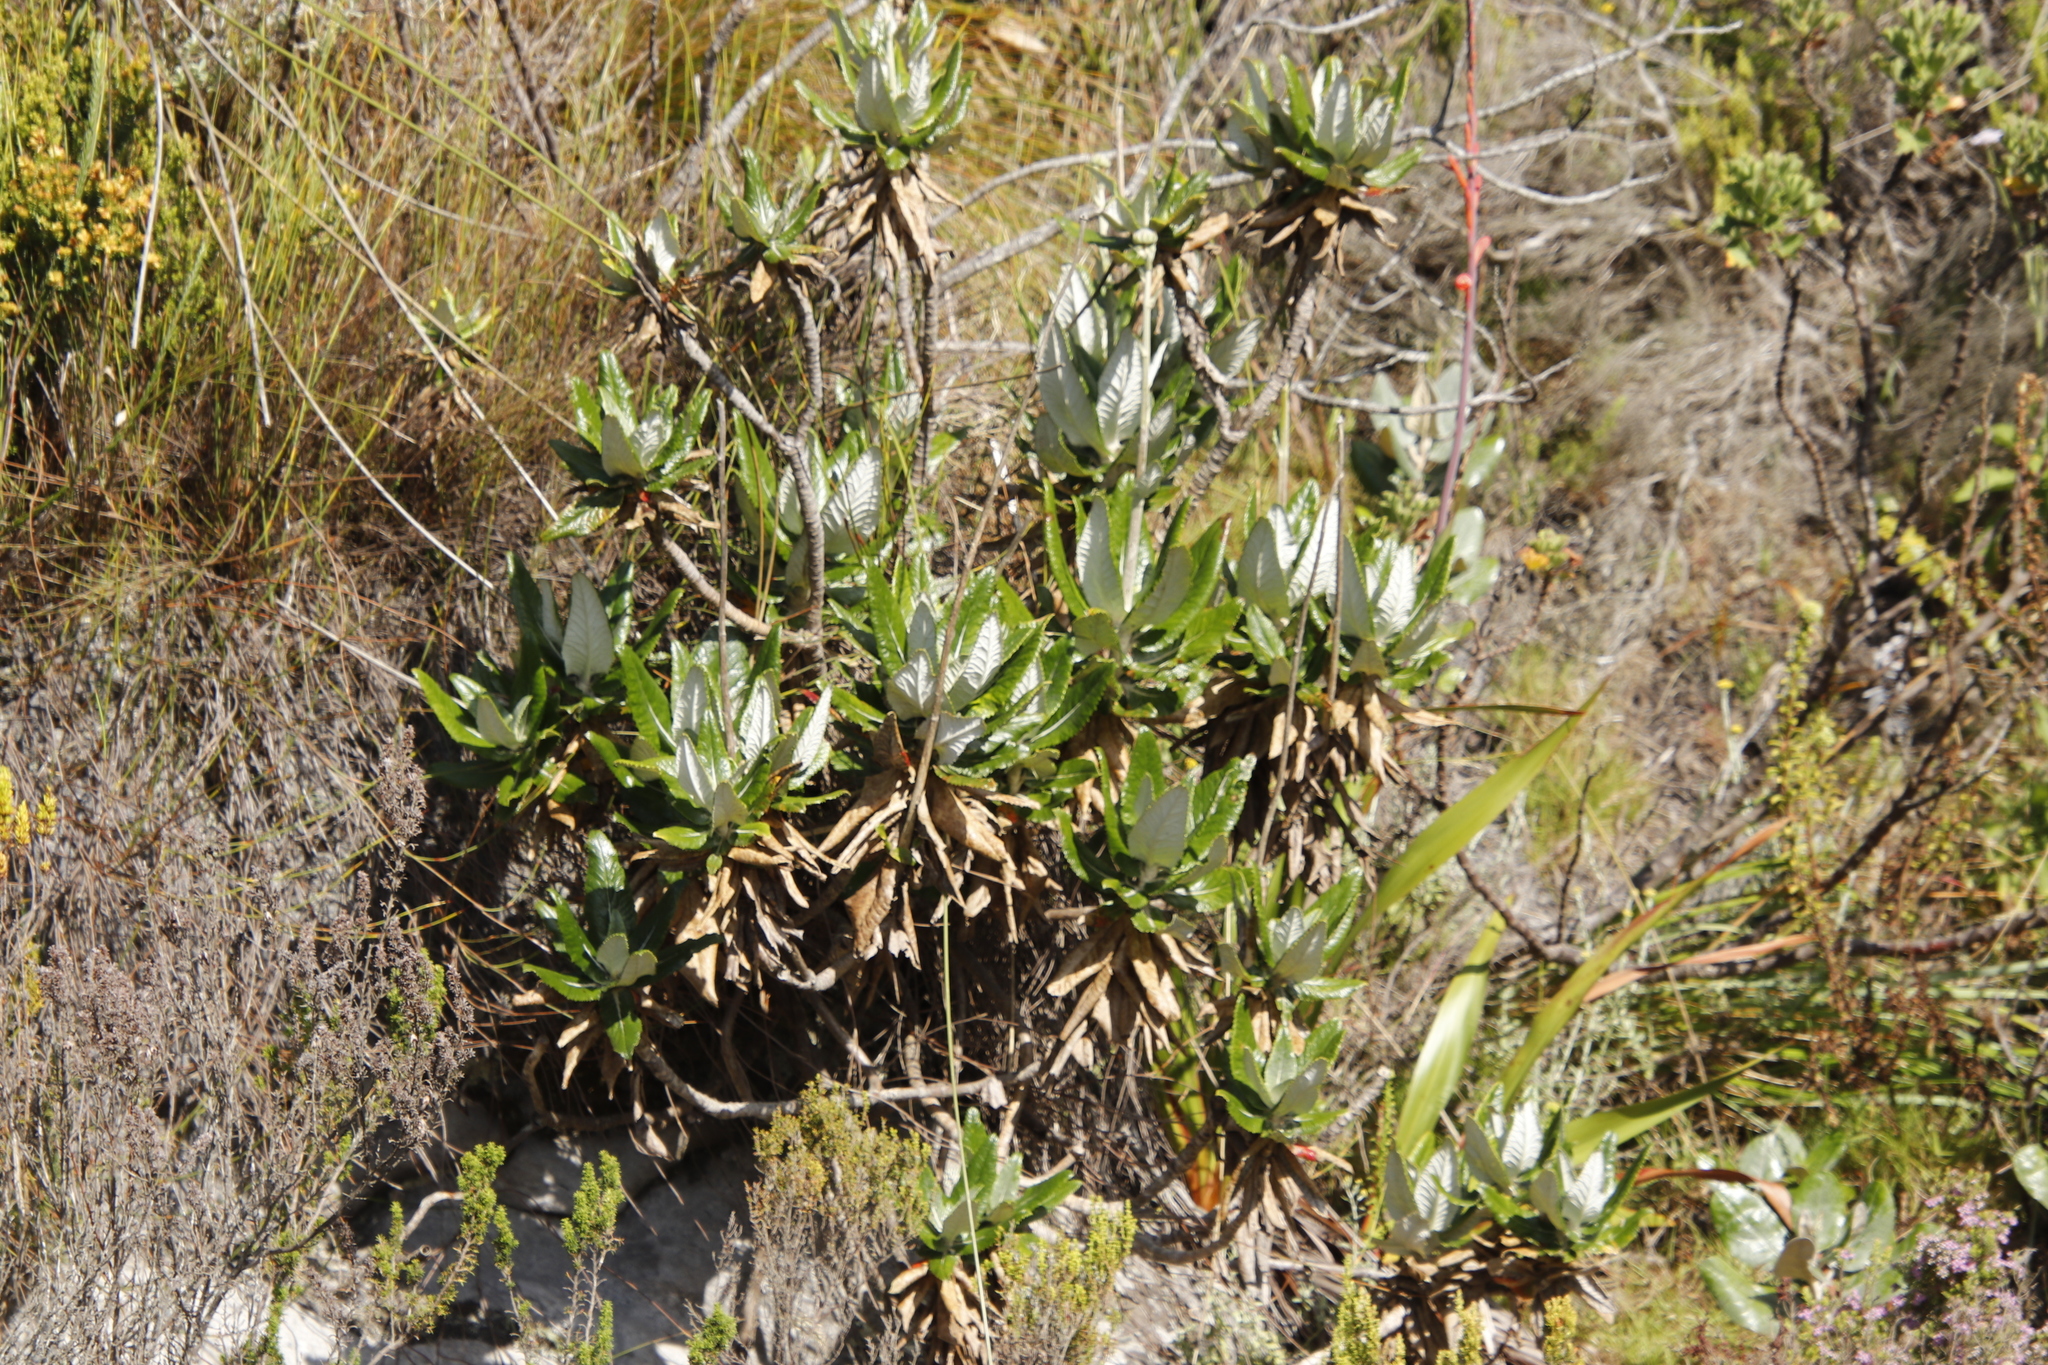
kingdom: Plantae
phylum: Tracheophyta
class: Magnoliopsida
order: Apiales
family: Apiaceae
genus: Hermas
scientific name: Hermas villosa
